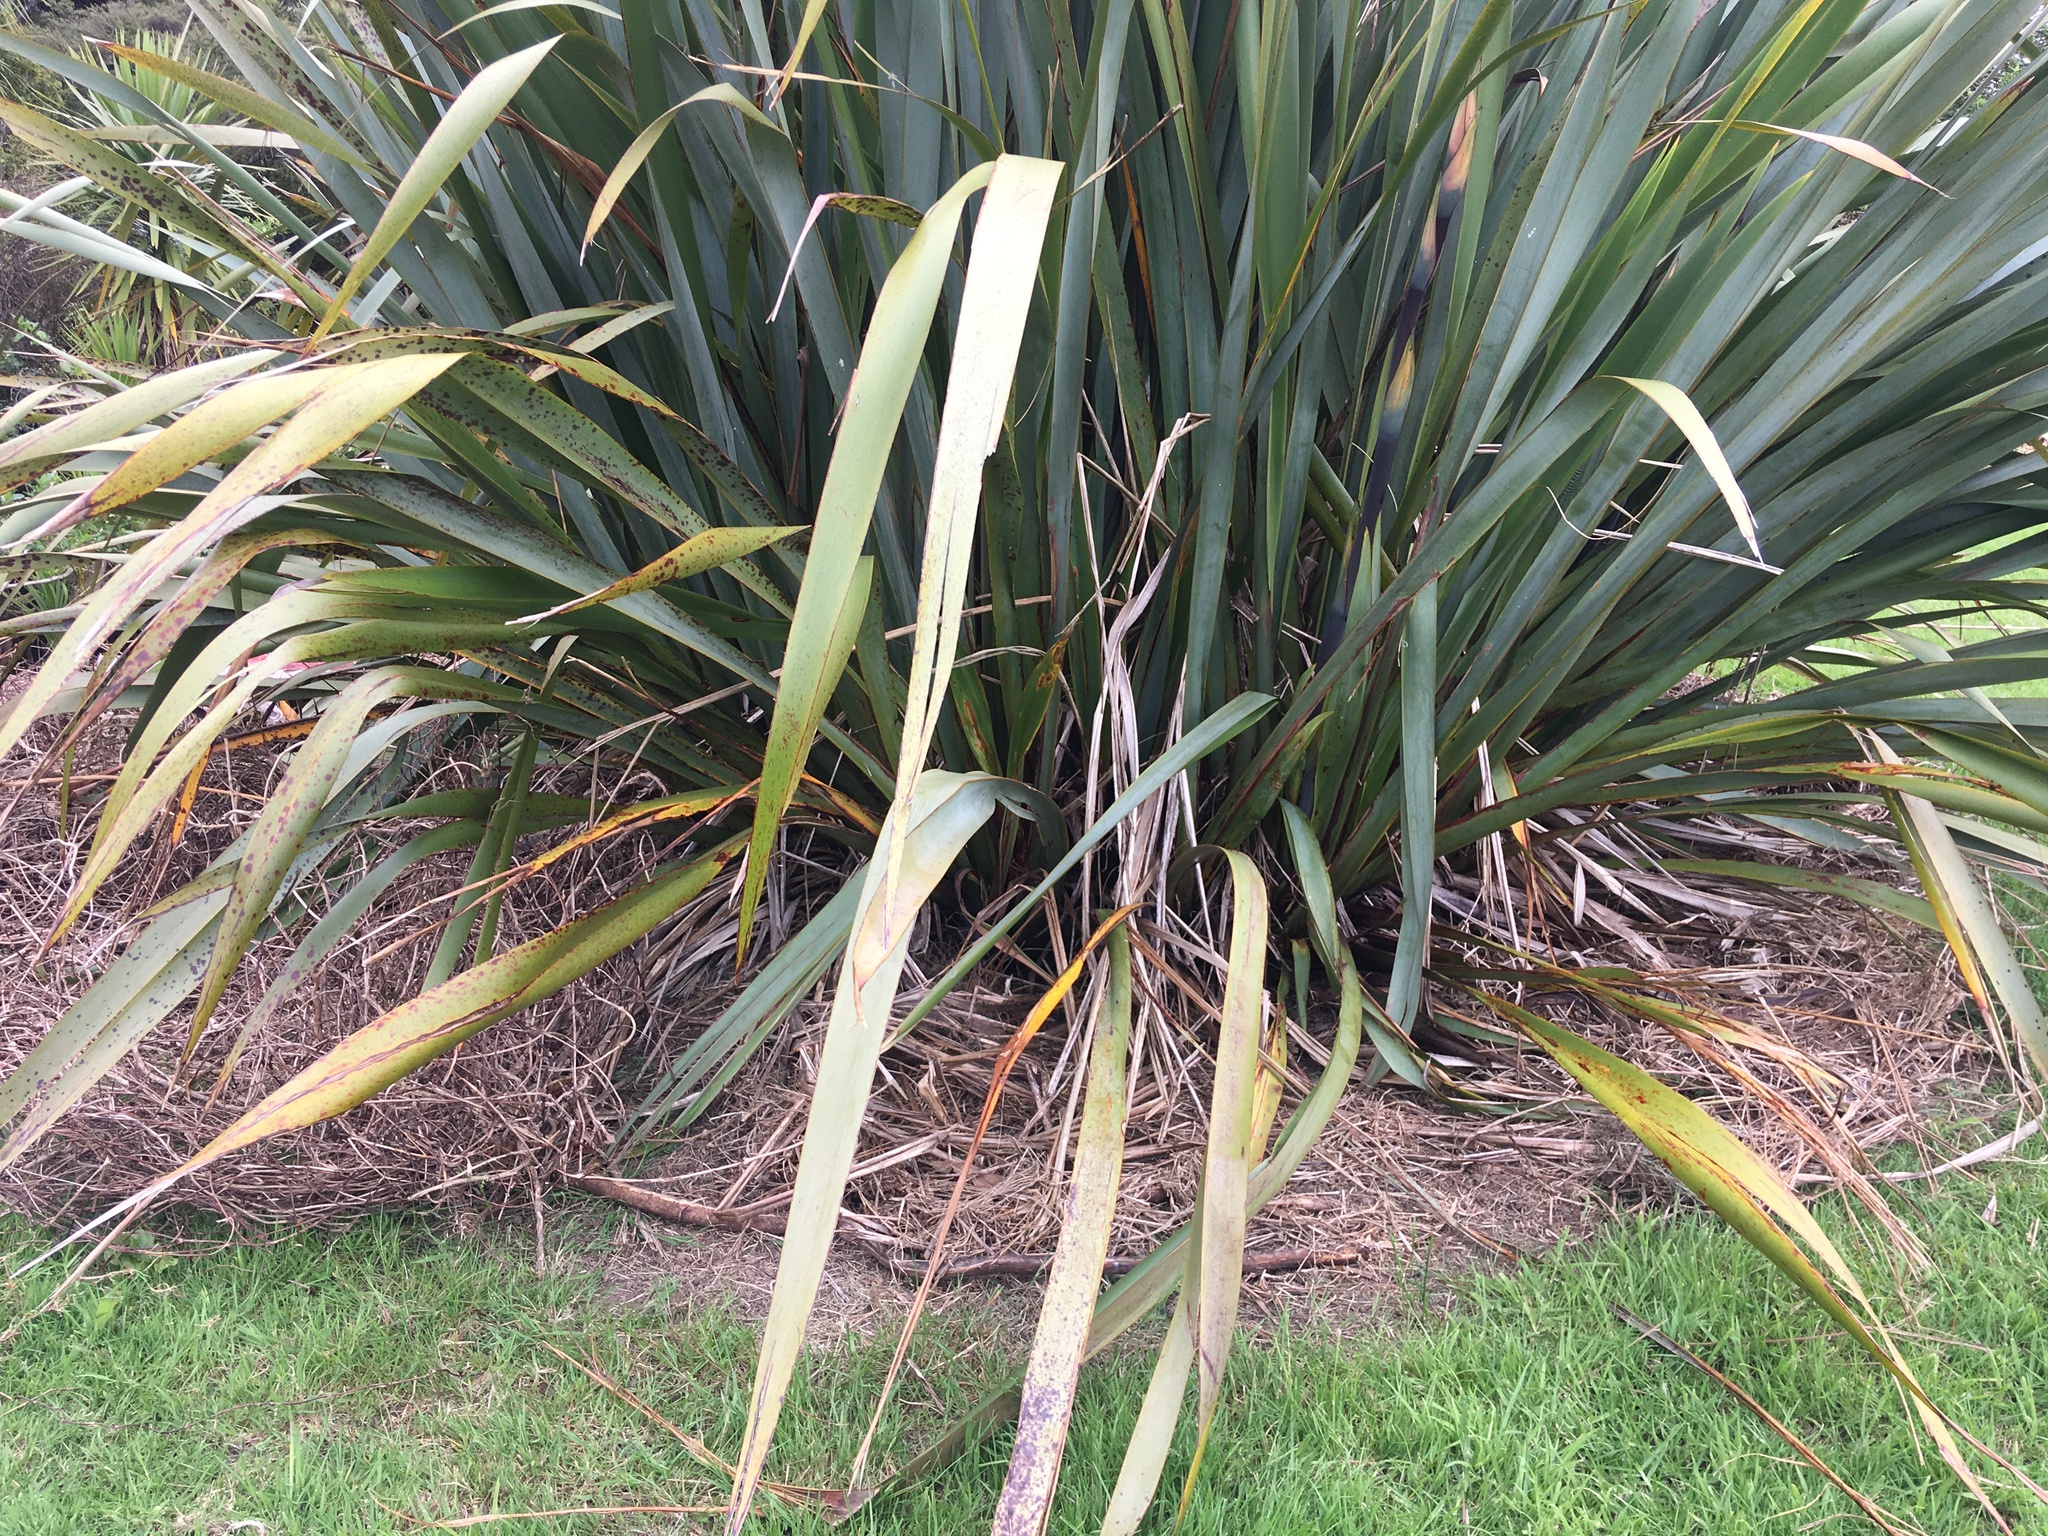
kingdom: Plantae
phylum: Tracheophyta
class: Liliopsida
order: Asparagales
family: Asphodelaceae
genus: Phormium
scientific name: Phormium tenax
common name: New zealand flax
